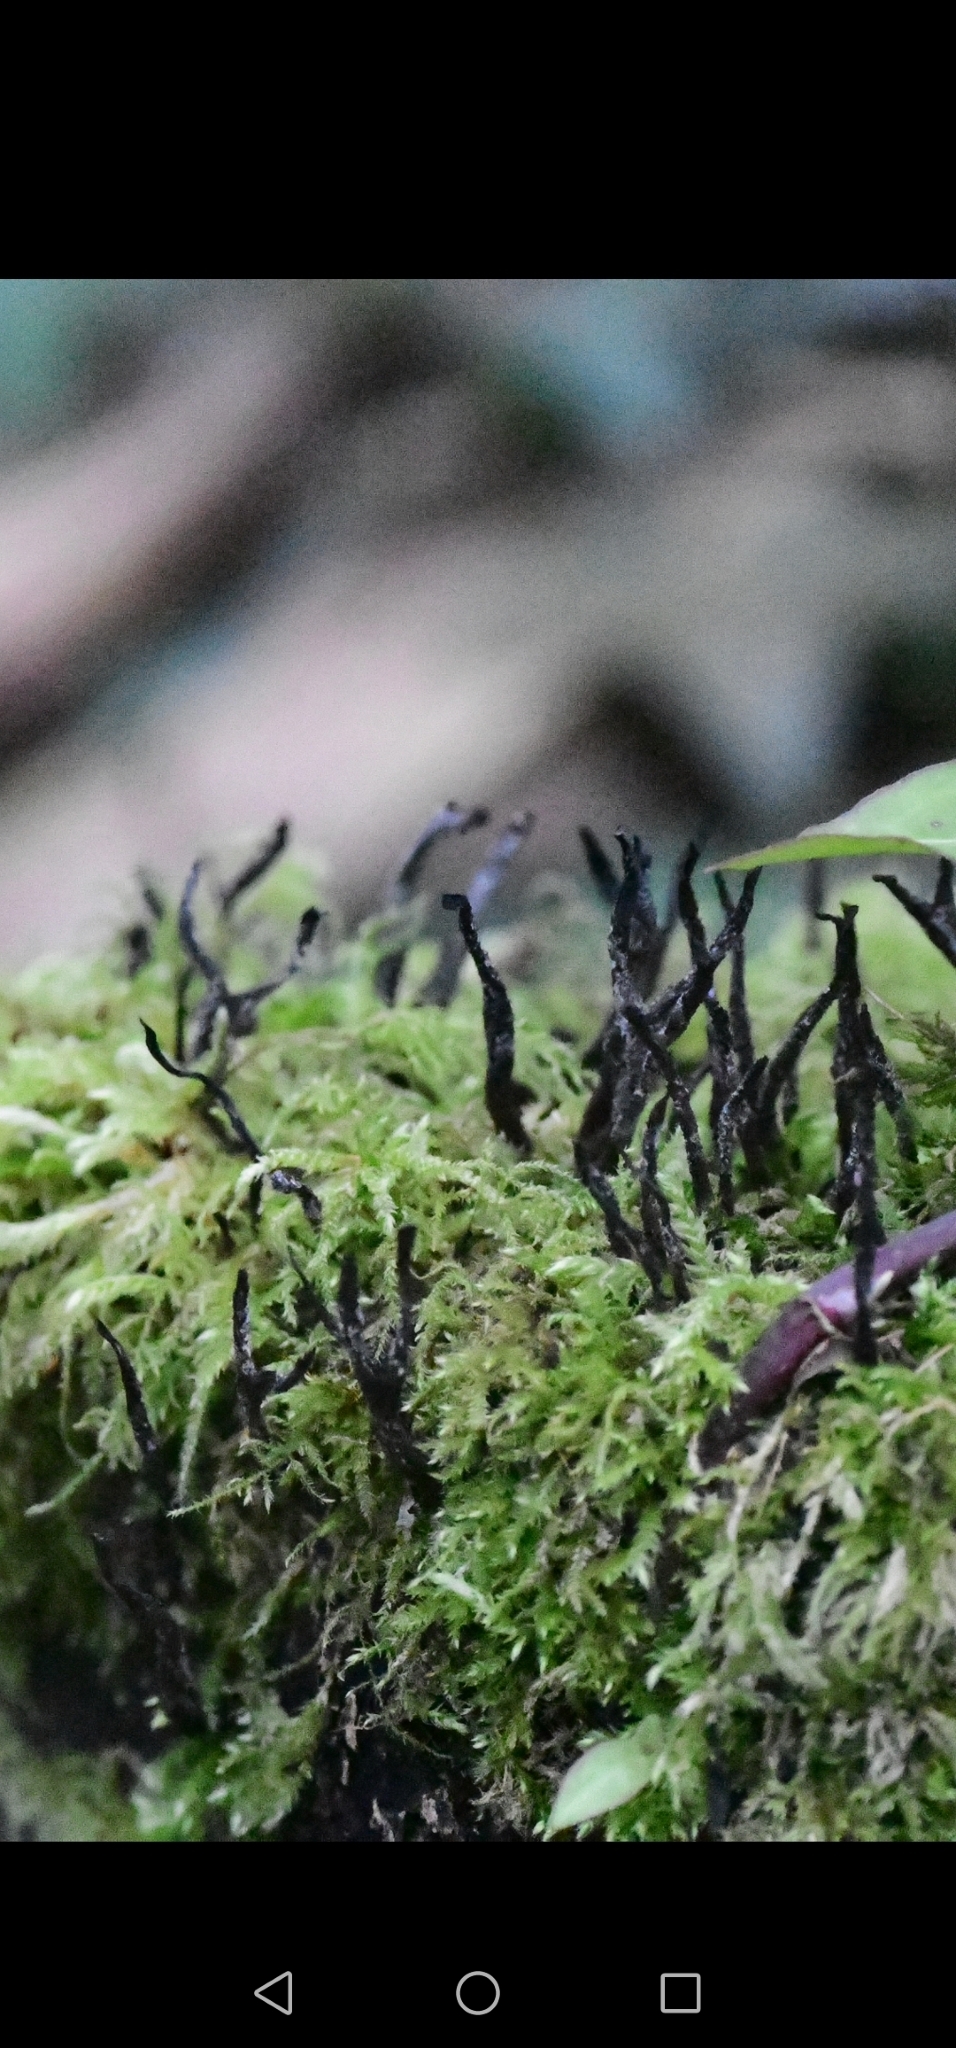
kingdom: Fungi
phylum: Ascomycota
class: Sordariomycetes
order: Xylariales
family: Xylariaceae
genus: Xylaria
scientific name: Xylaria hypoxylon
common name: Candle-snuff fungus
